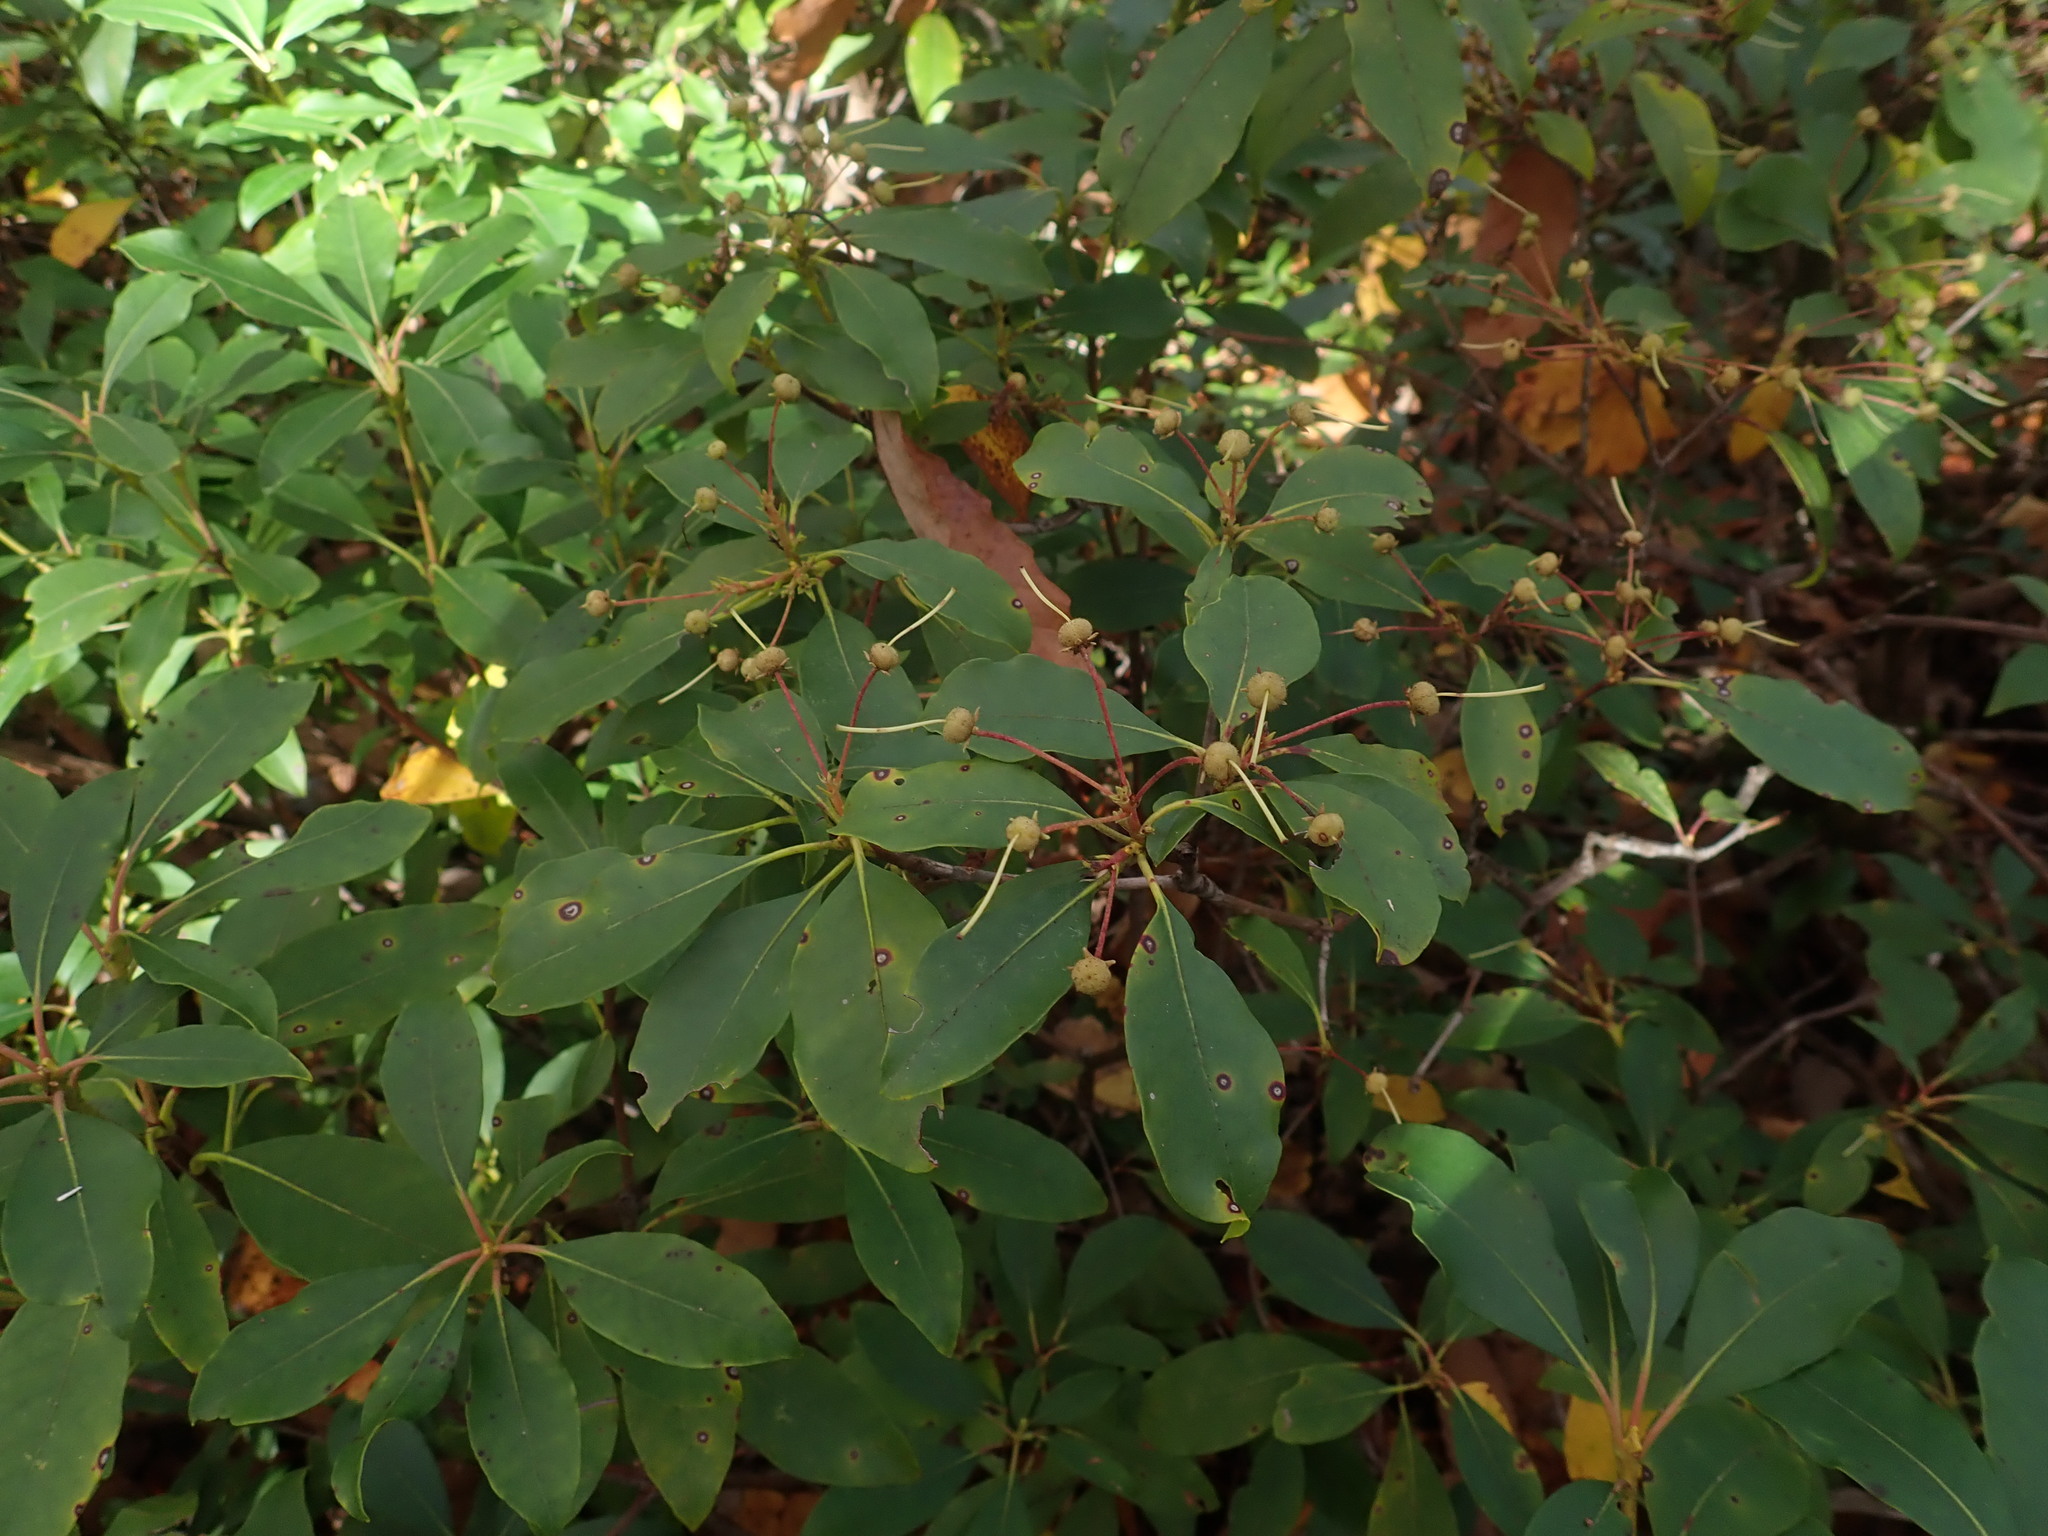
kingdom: Plantae
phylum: Tracheophyta
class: Magnoliopsida
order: Ericales
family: Ericaceae
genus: Kalmia
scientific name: Kalmia latifolia
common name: Mountain-laurel
